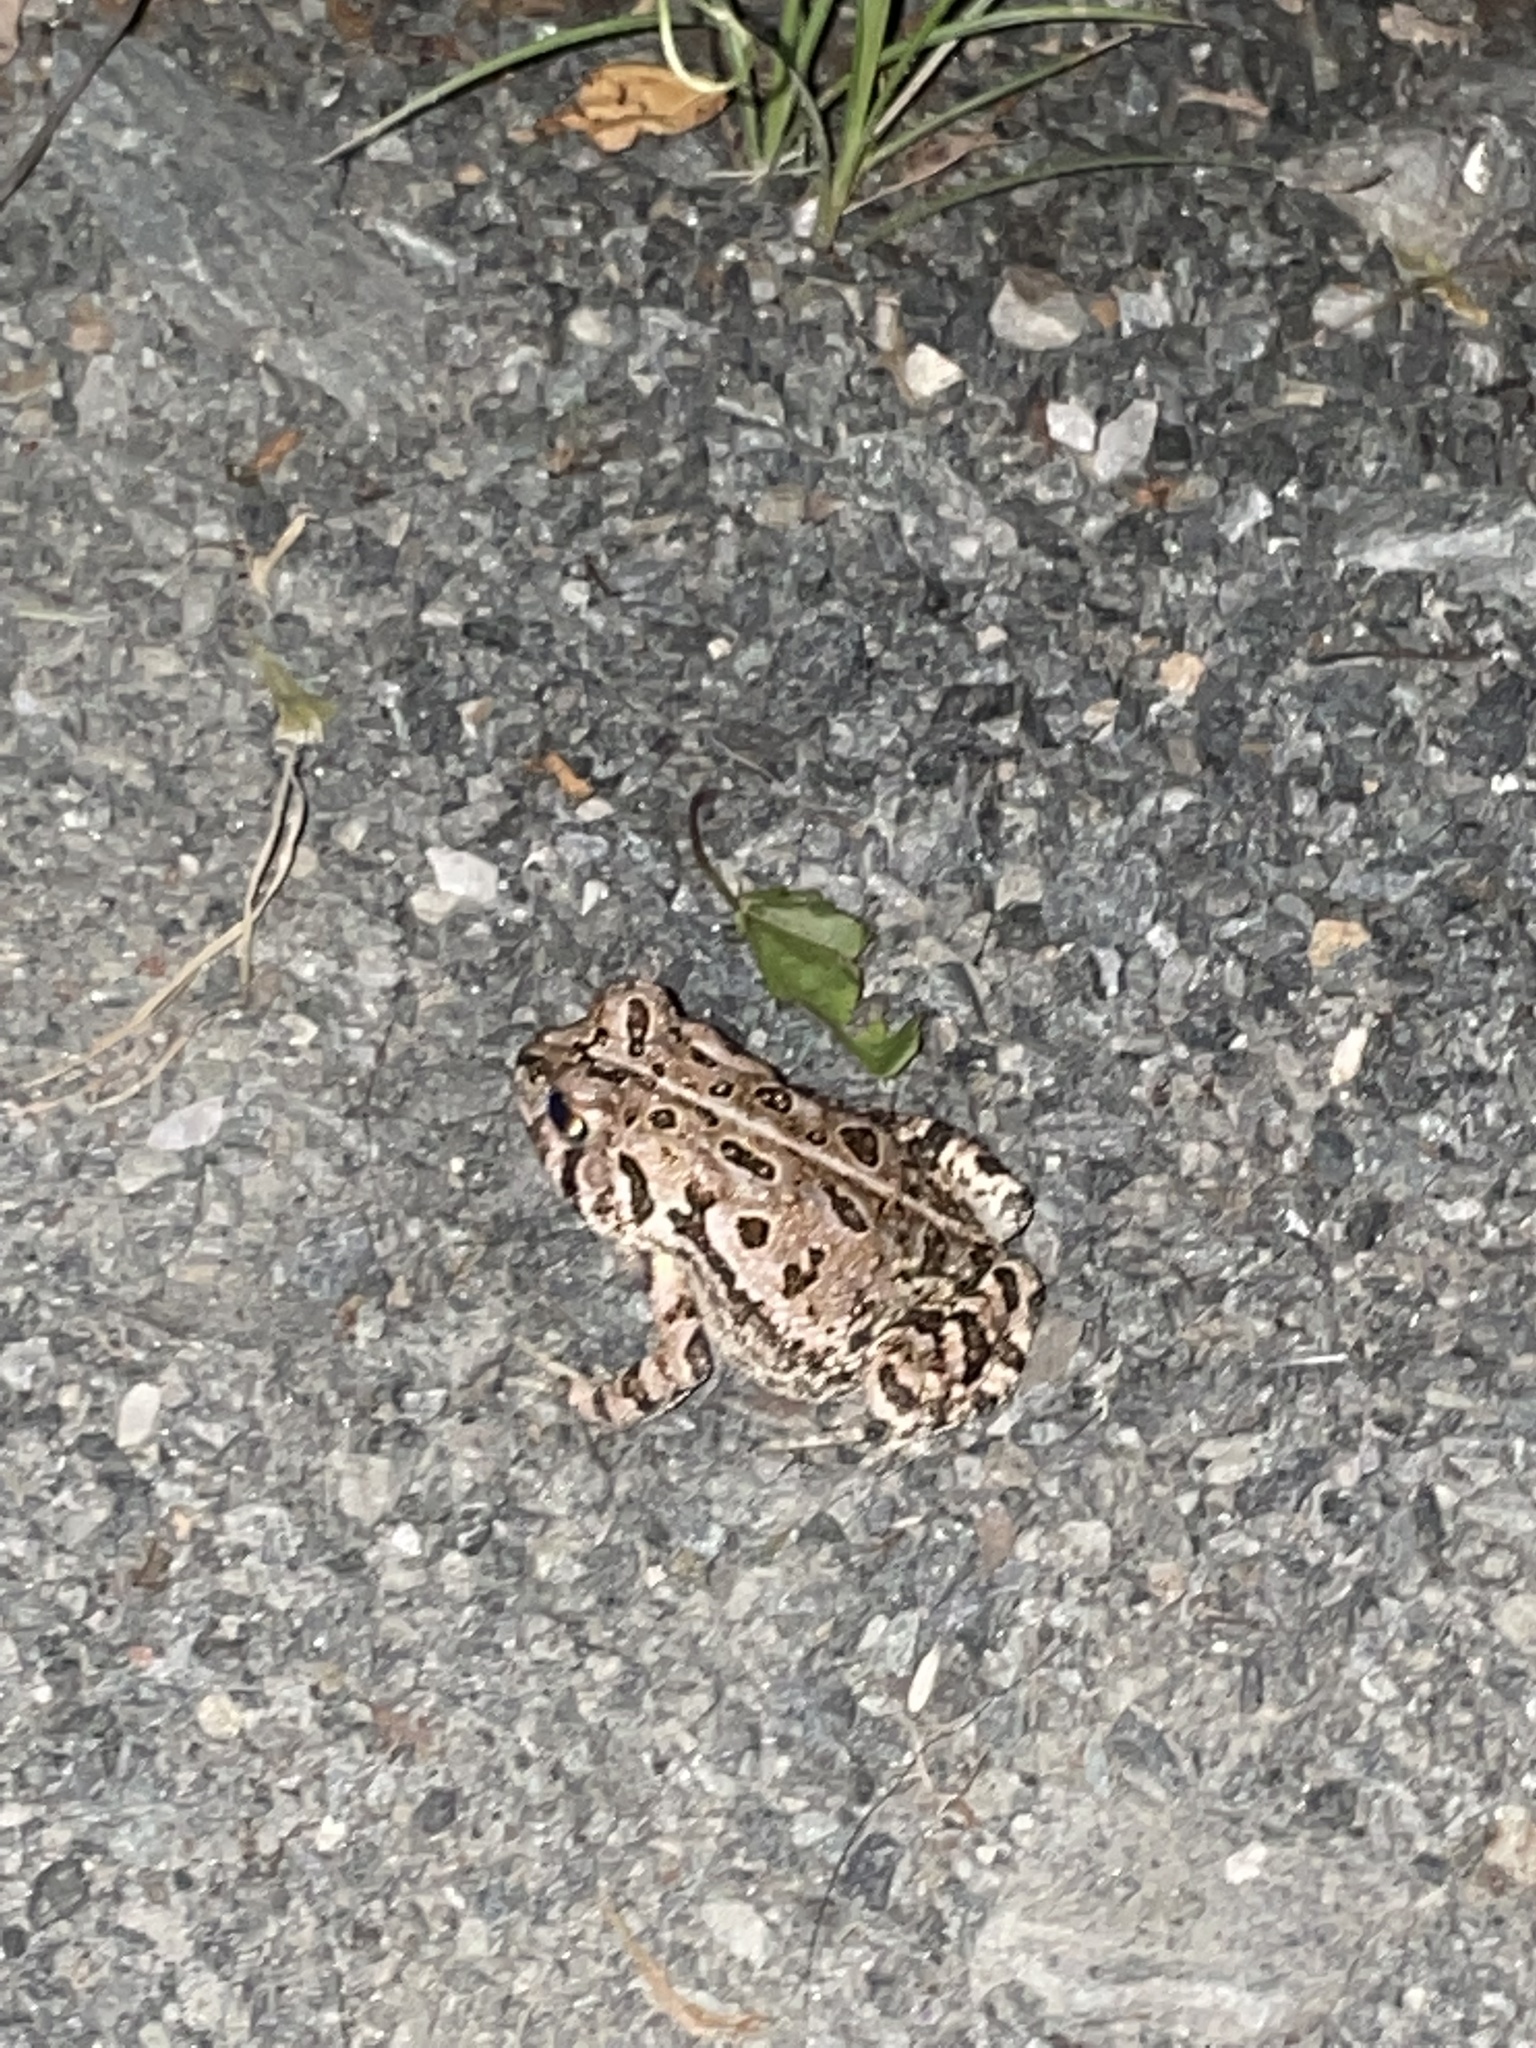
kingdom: Animalia
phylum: Chordata
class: Amphibia
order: Anura
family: Bufonidae
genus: Anaxyrus
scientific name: Anaxyrus fowleri
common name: Fowler's toad
